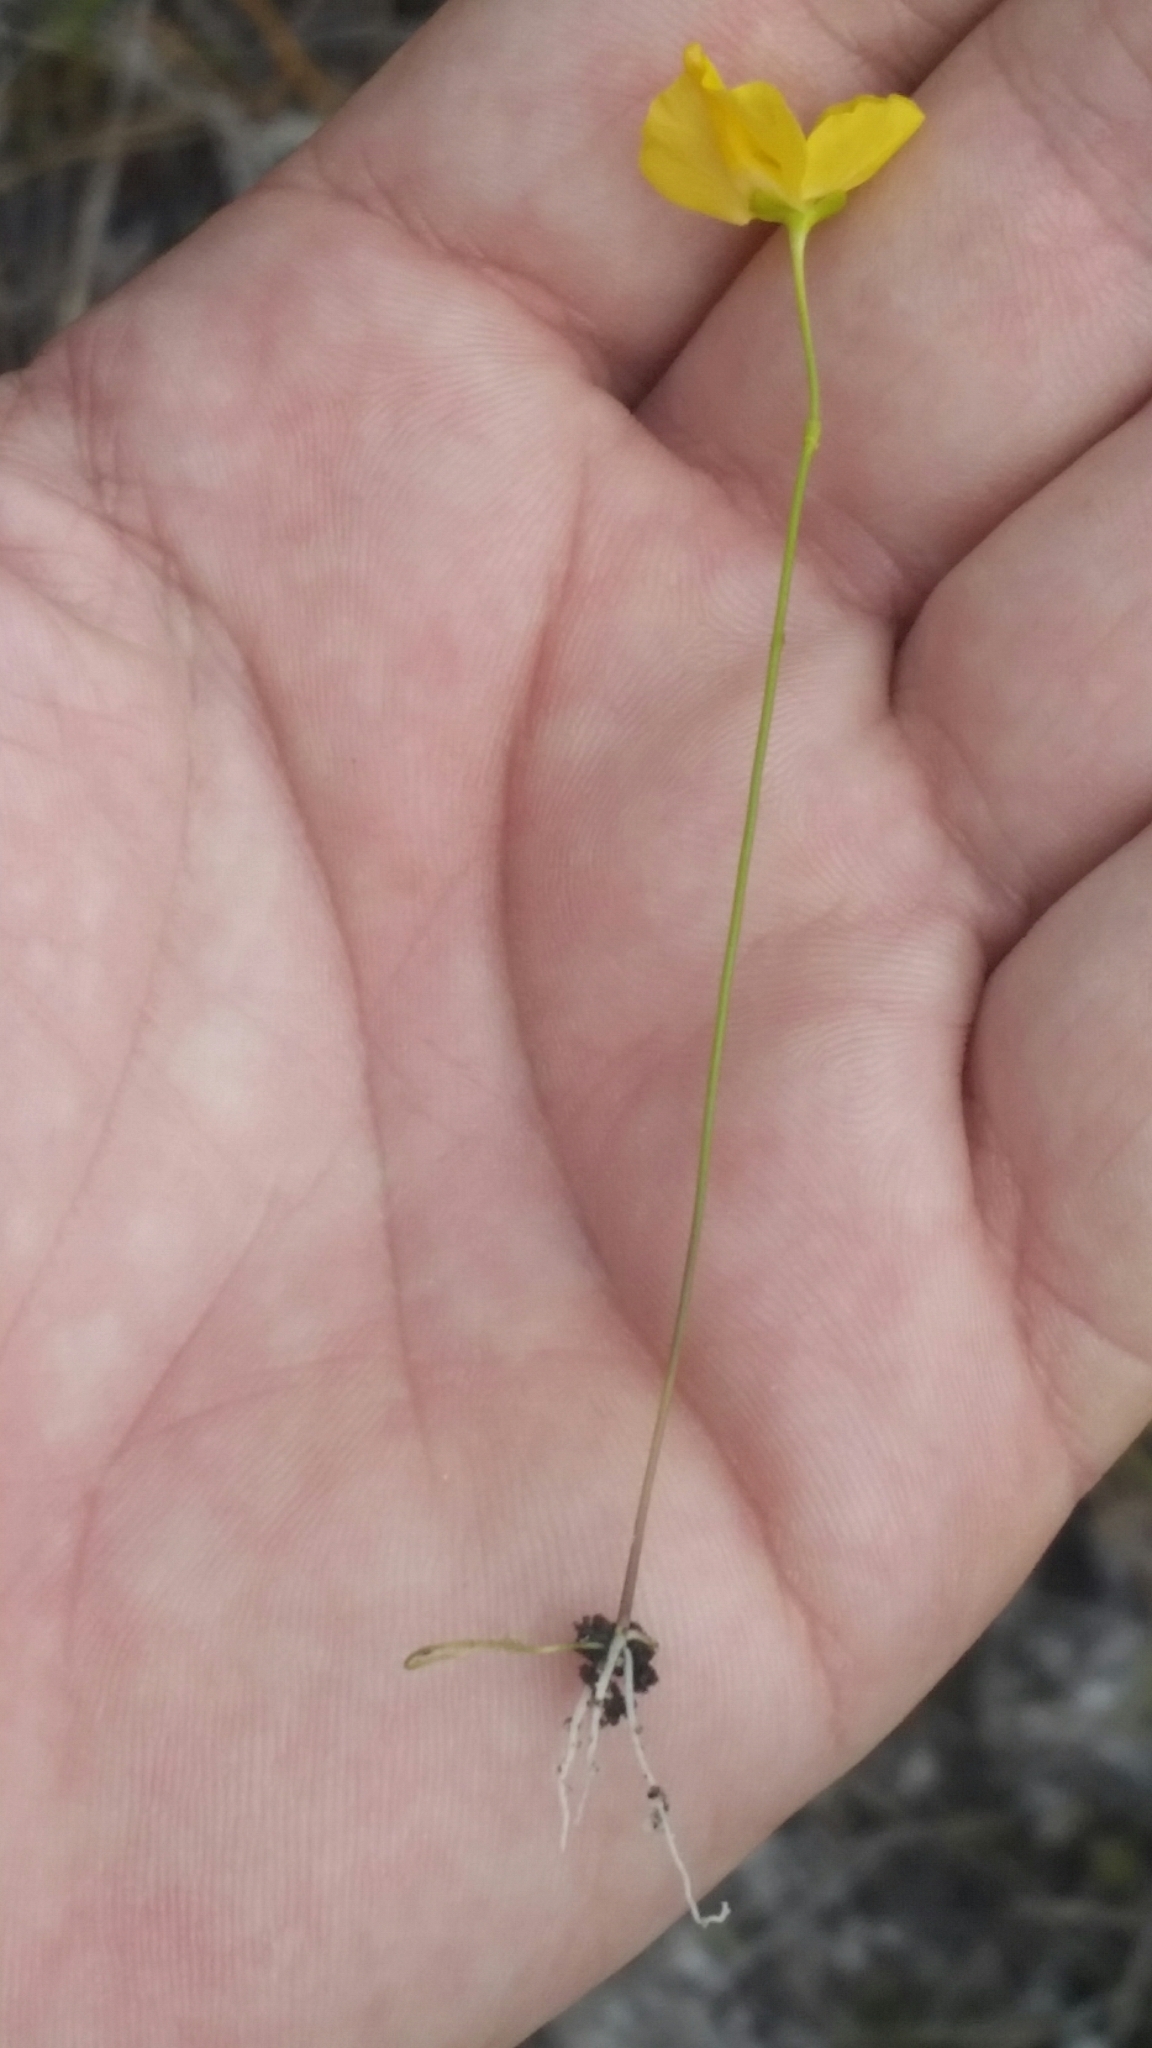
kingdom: Plantae
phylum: Tracheophyta
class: Magnoliopsida
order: Lamiales
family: Lentibulariaceae
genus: Utricularia
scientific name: Utricularia gibba
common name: Humped bladderwort
